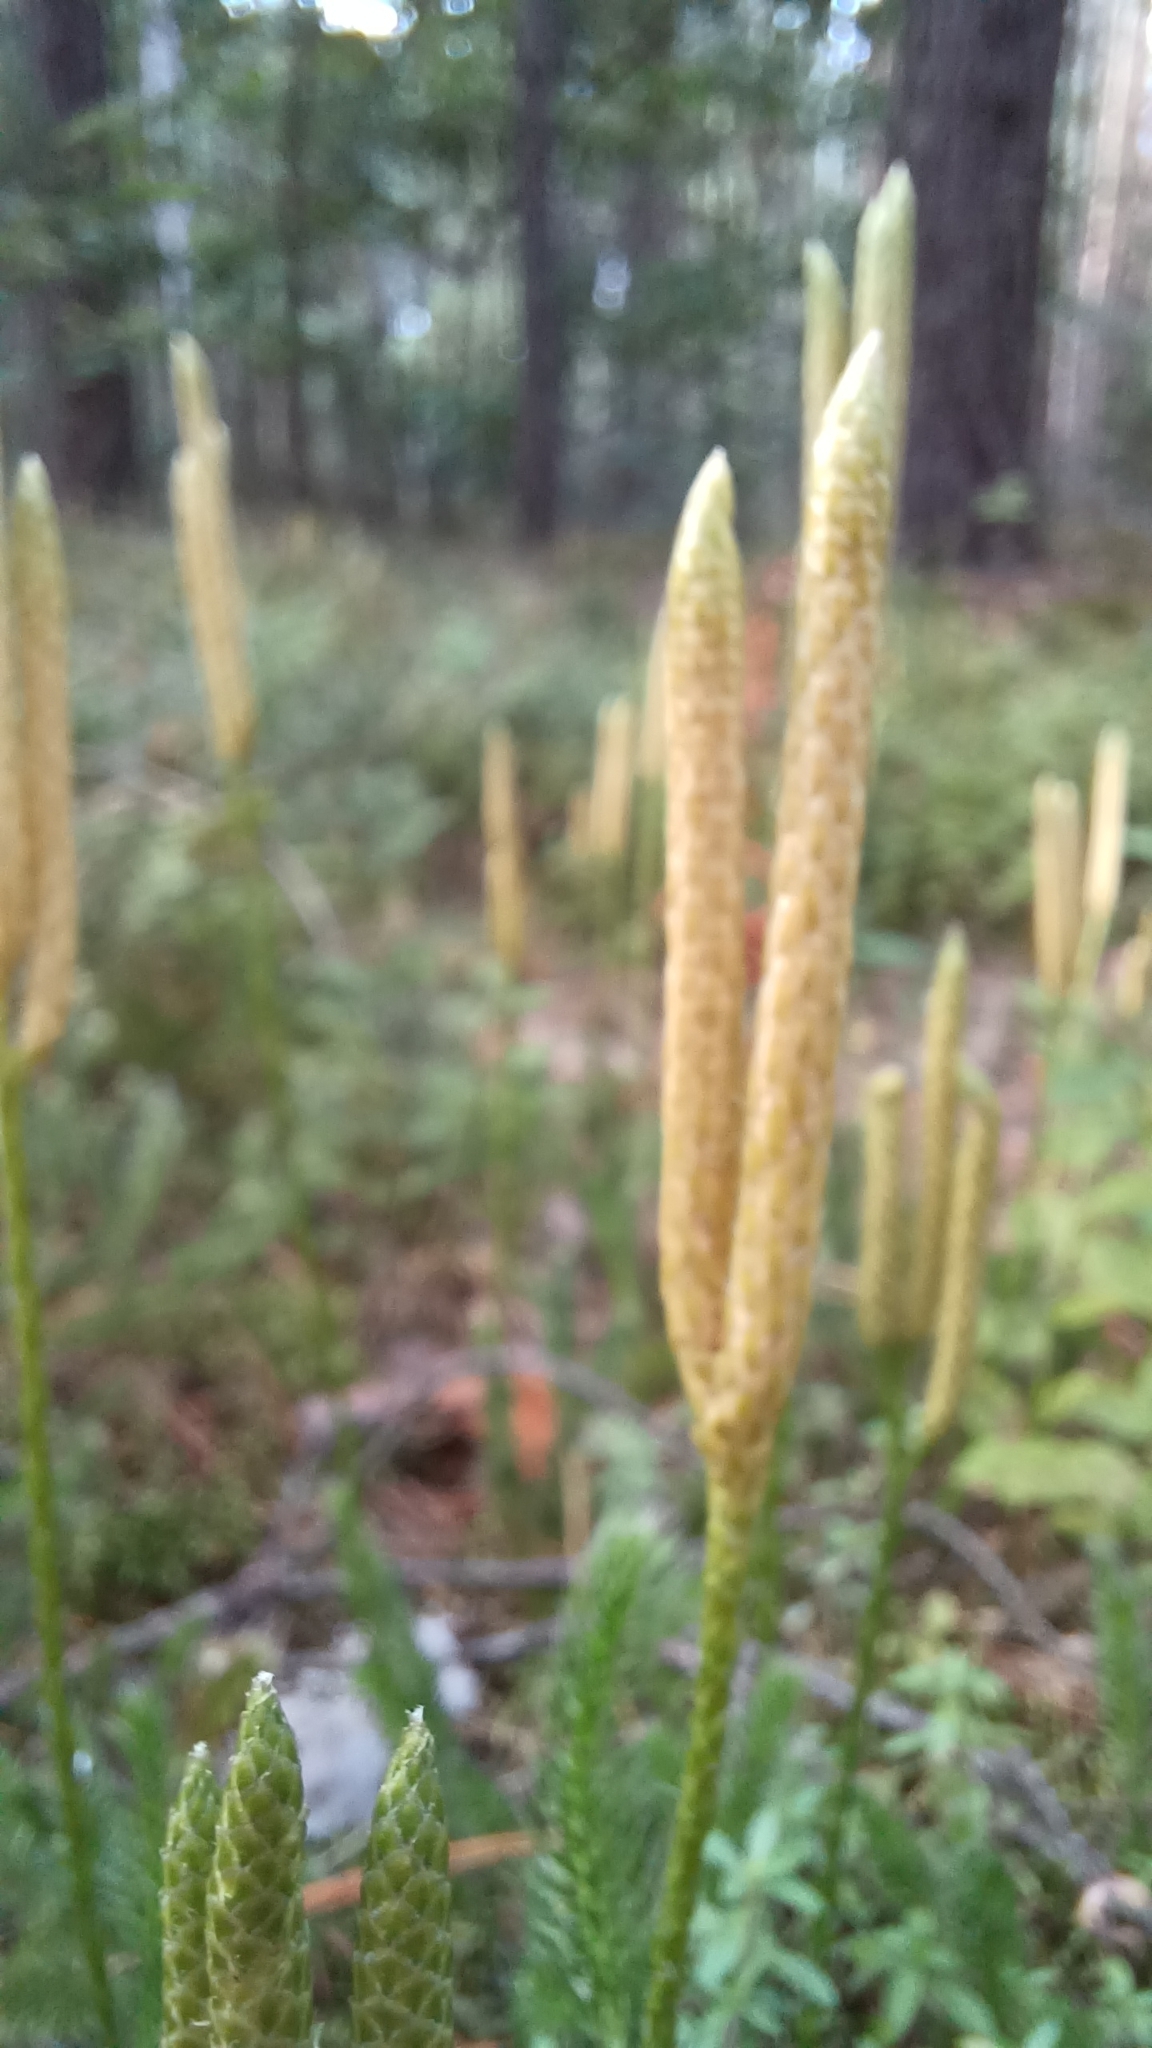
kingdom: Plantae
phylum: Tracheophyta
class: Lycopodiopsida
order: Lycopodiales
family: Lycopodiaceae
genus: Lycopodium
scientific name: Lycopodium clavatum
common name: Stag's-horn clubmoss
